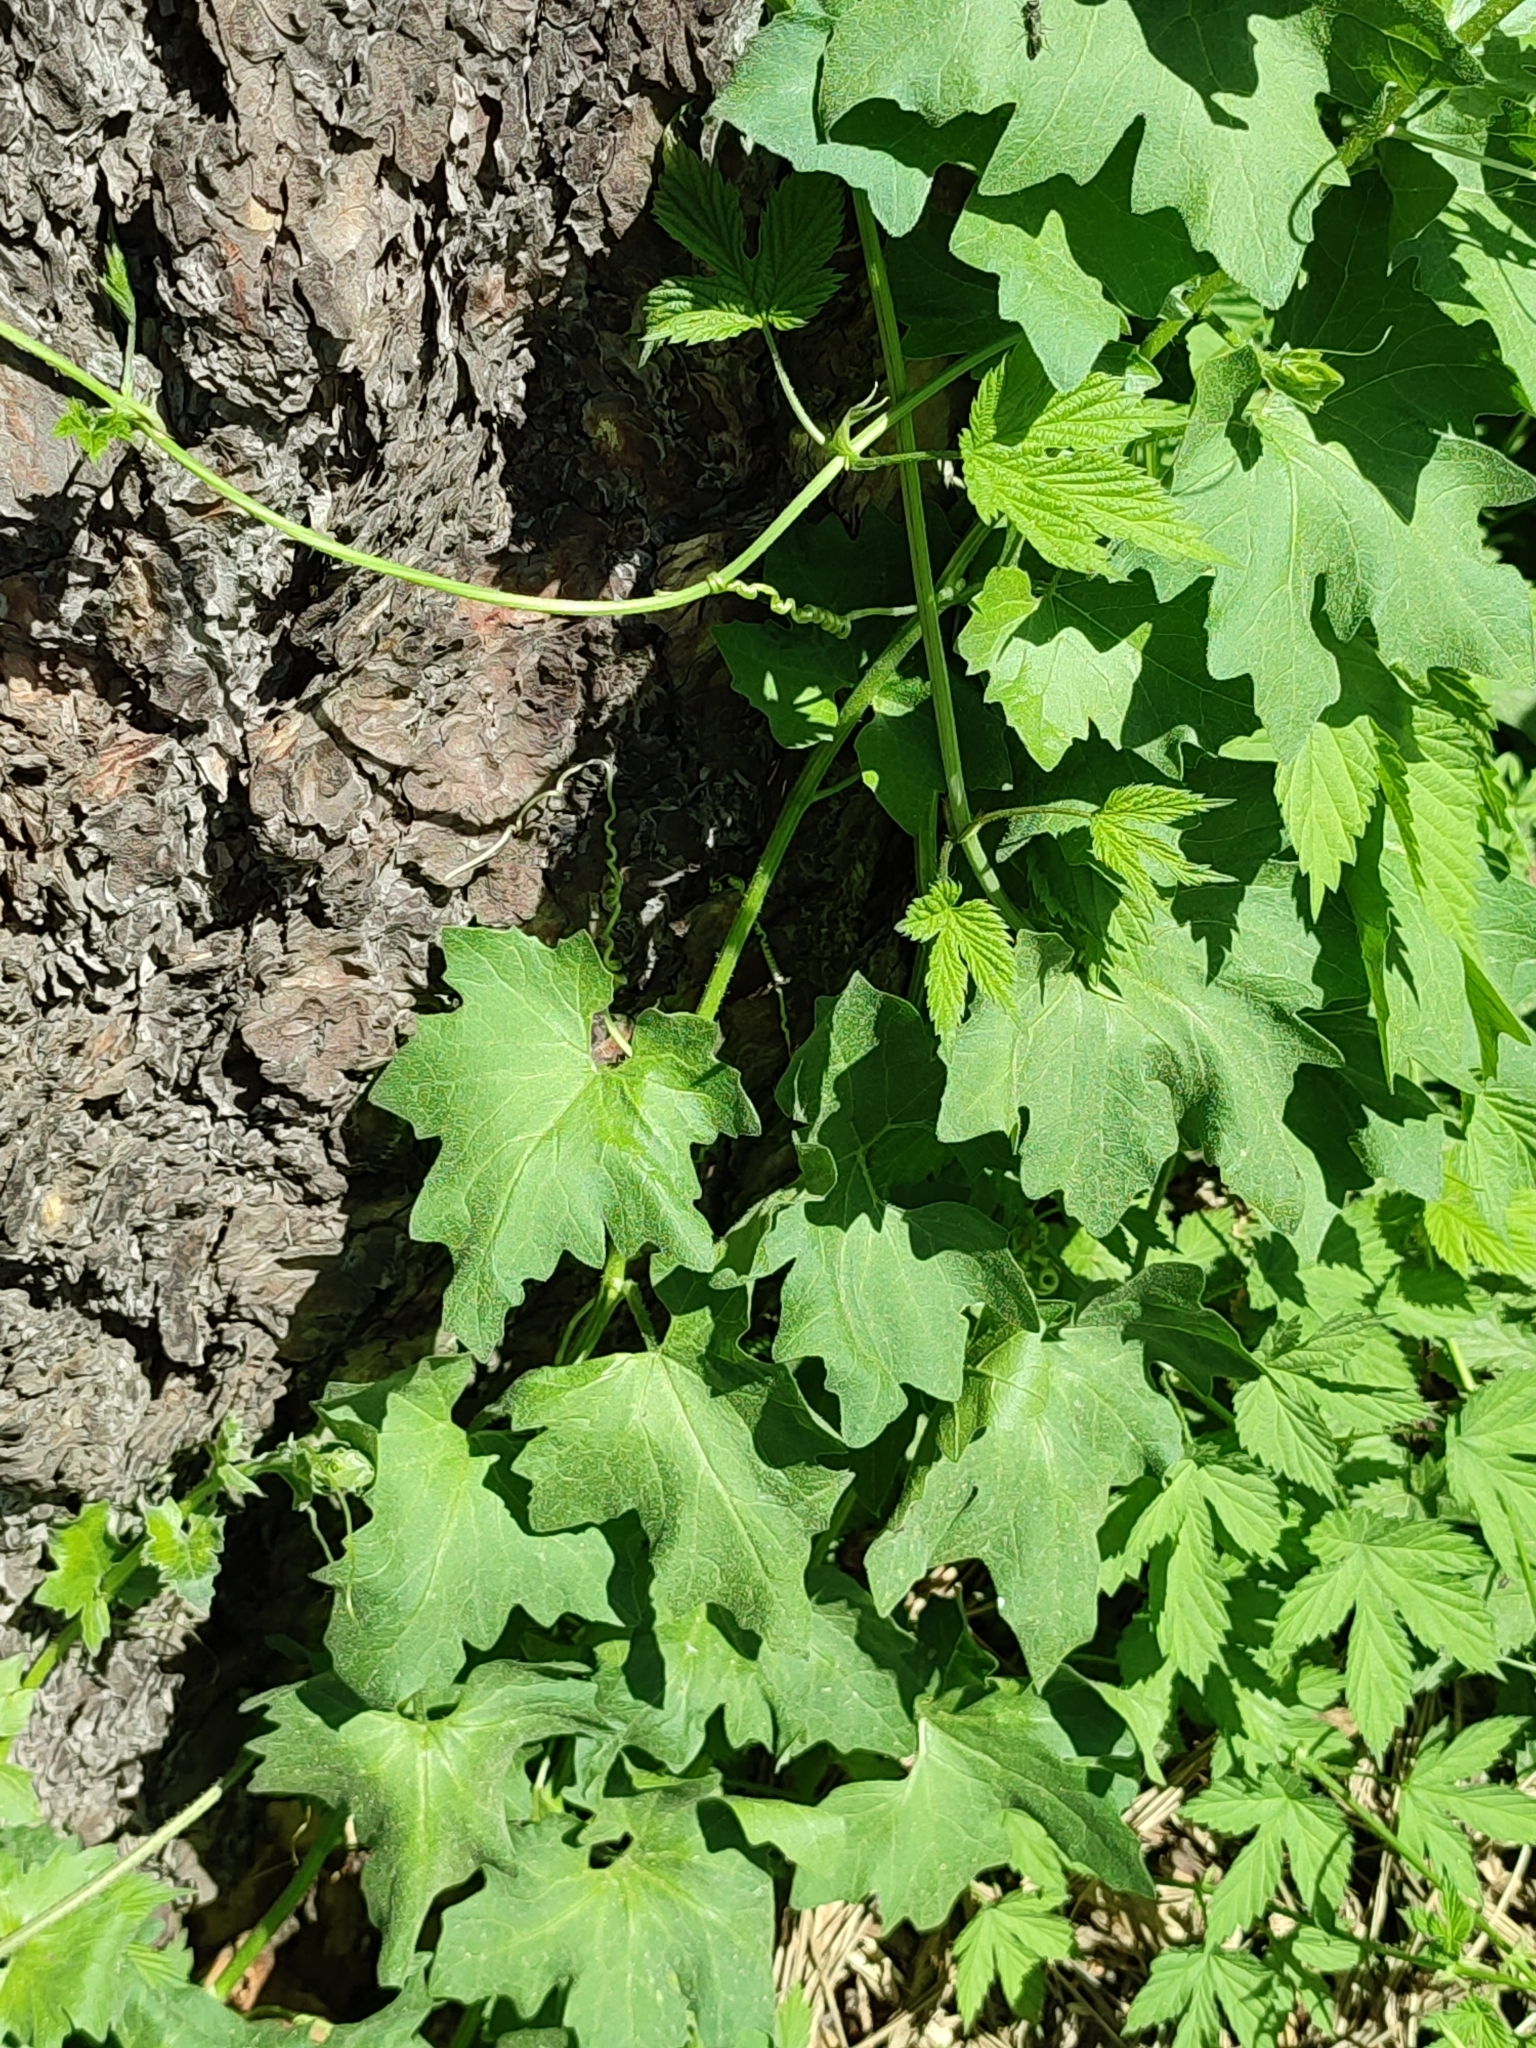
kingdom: Plantae
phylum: Tracheophyta
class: Magnoliopsida
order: Cucurbitales
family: Cucurbitaceae
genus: Bryonia
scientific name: Bryonia alba
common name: White bryony
